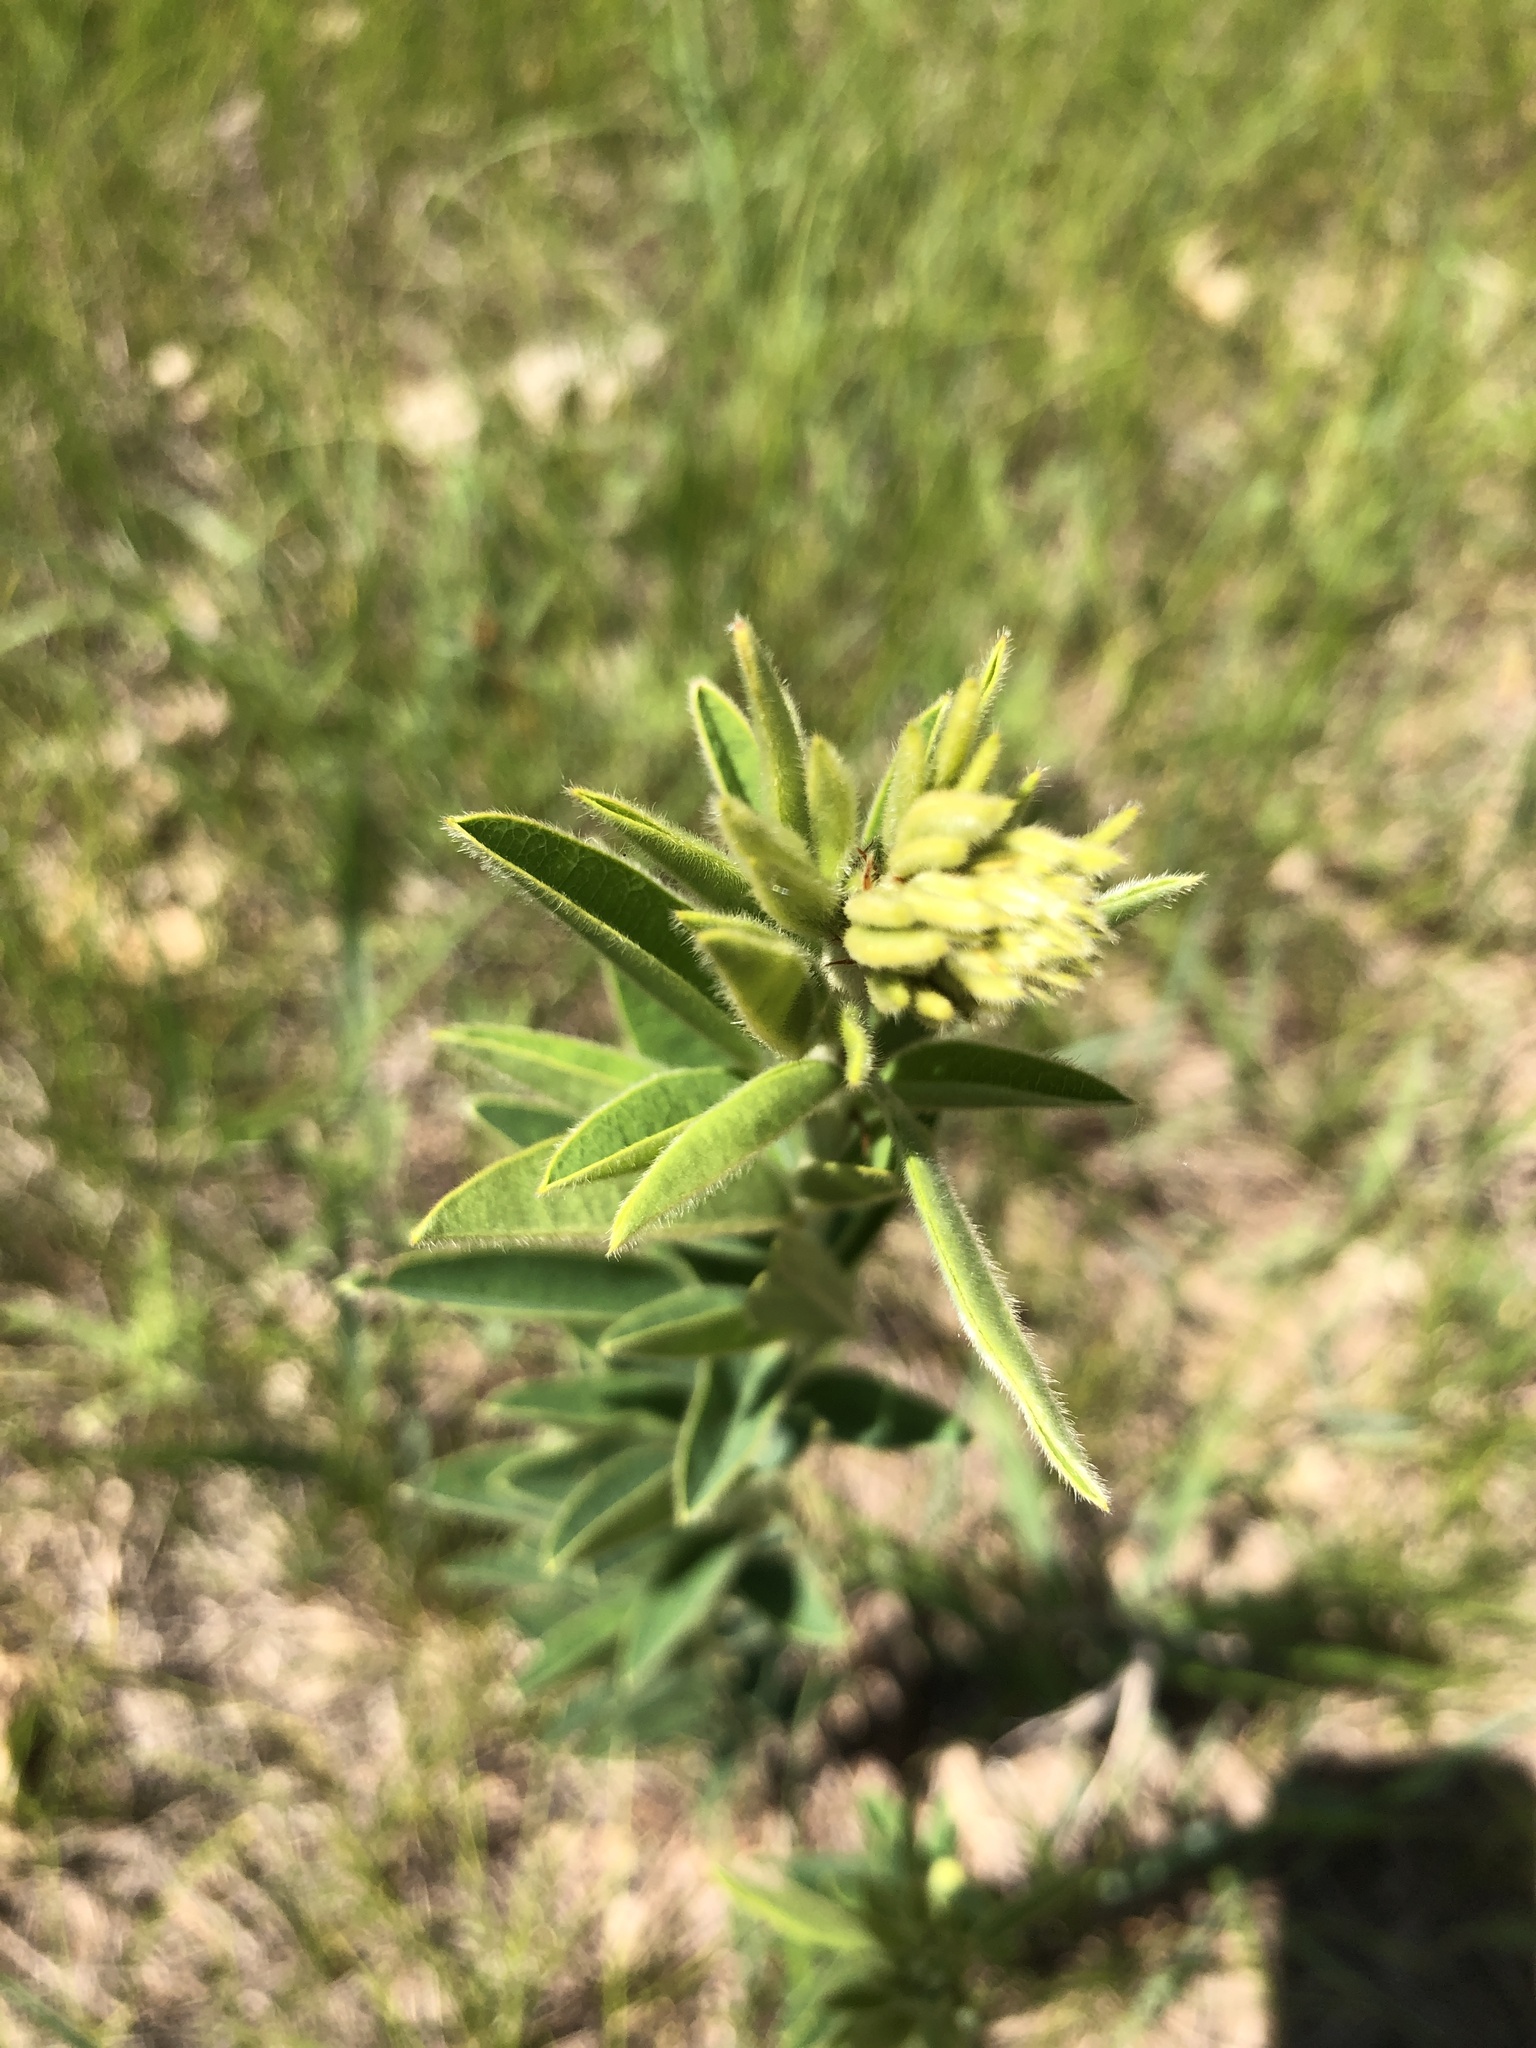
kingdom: Plantae
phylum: Tracheophyta
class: Magnoliopsida
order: Fabales
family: Fabaceae
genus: Lespedeza
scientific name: Lespedeza capitata
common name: Dusty clover
